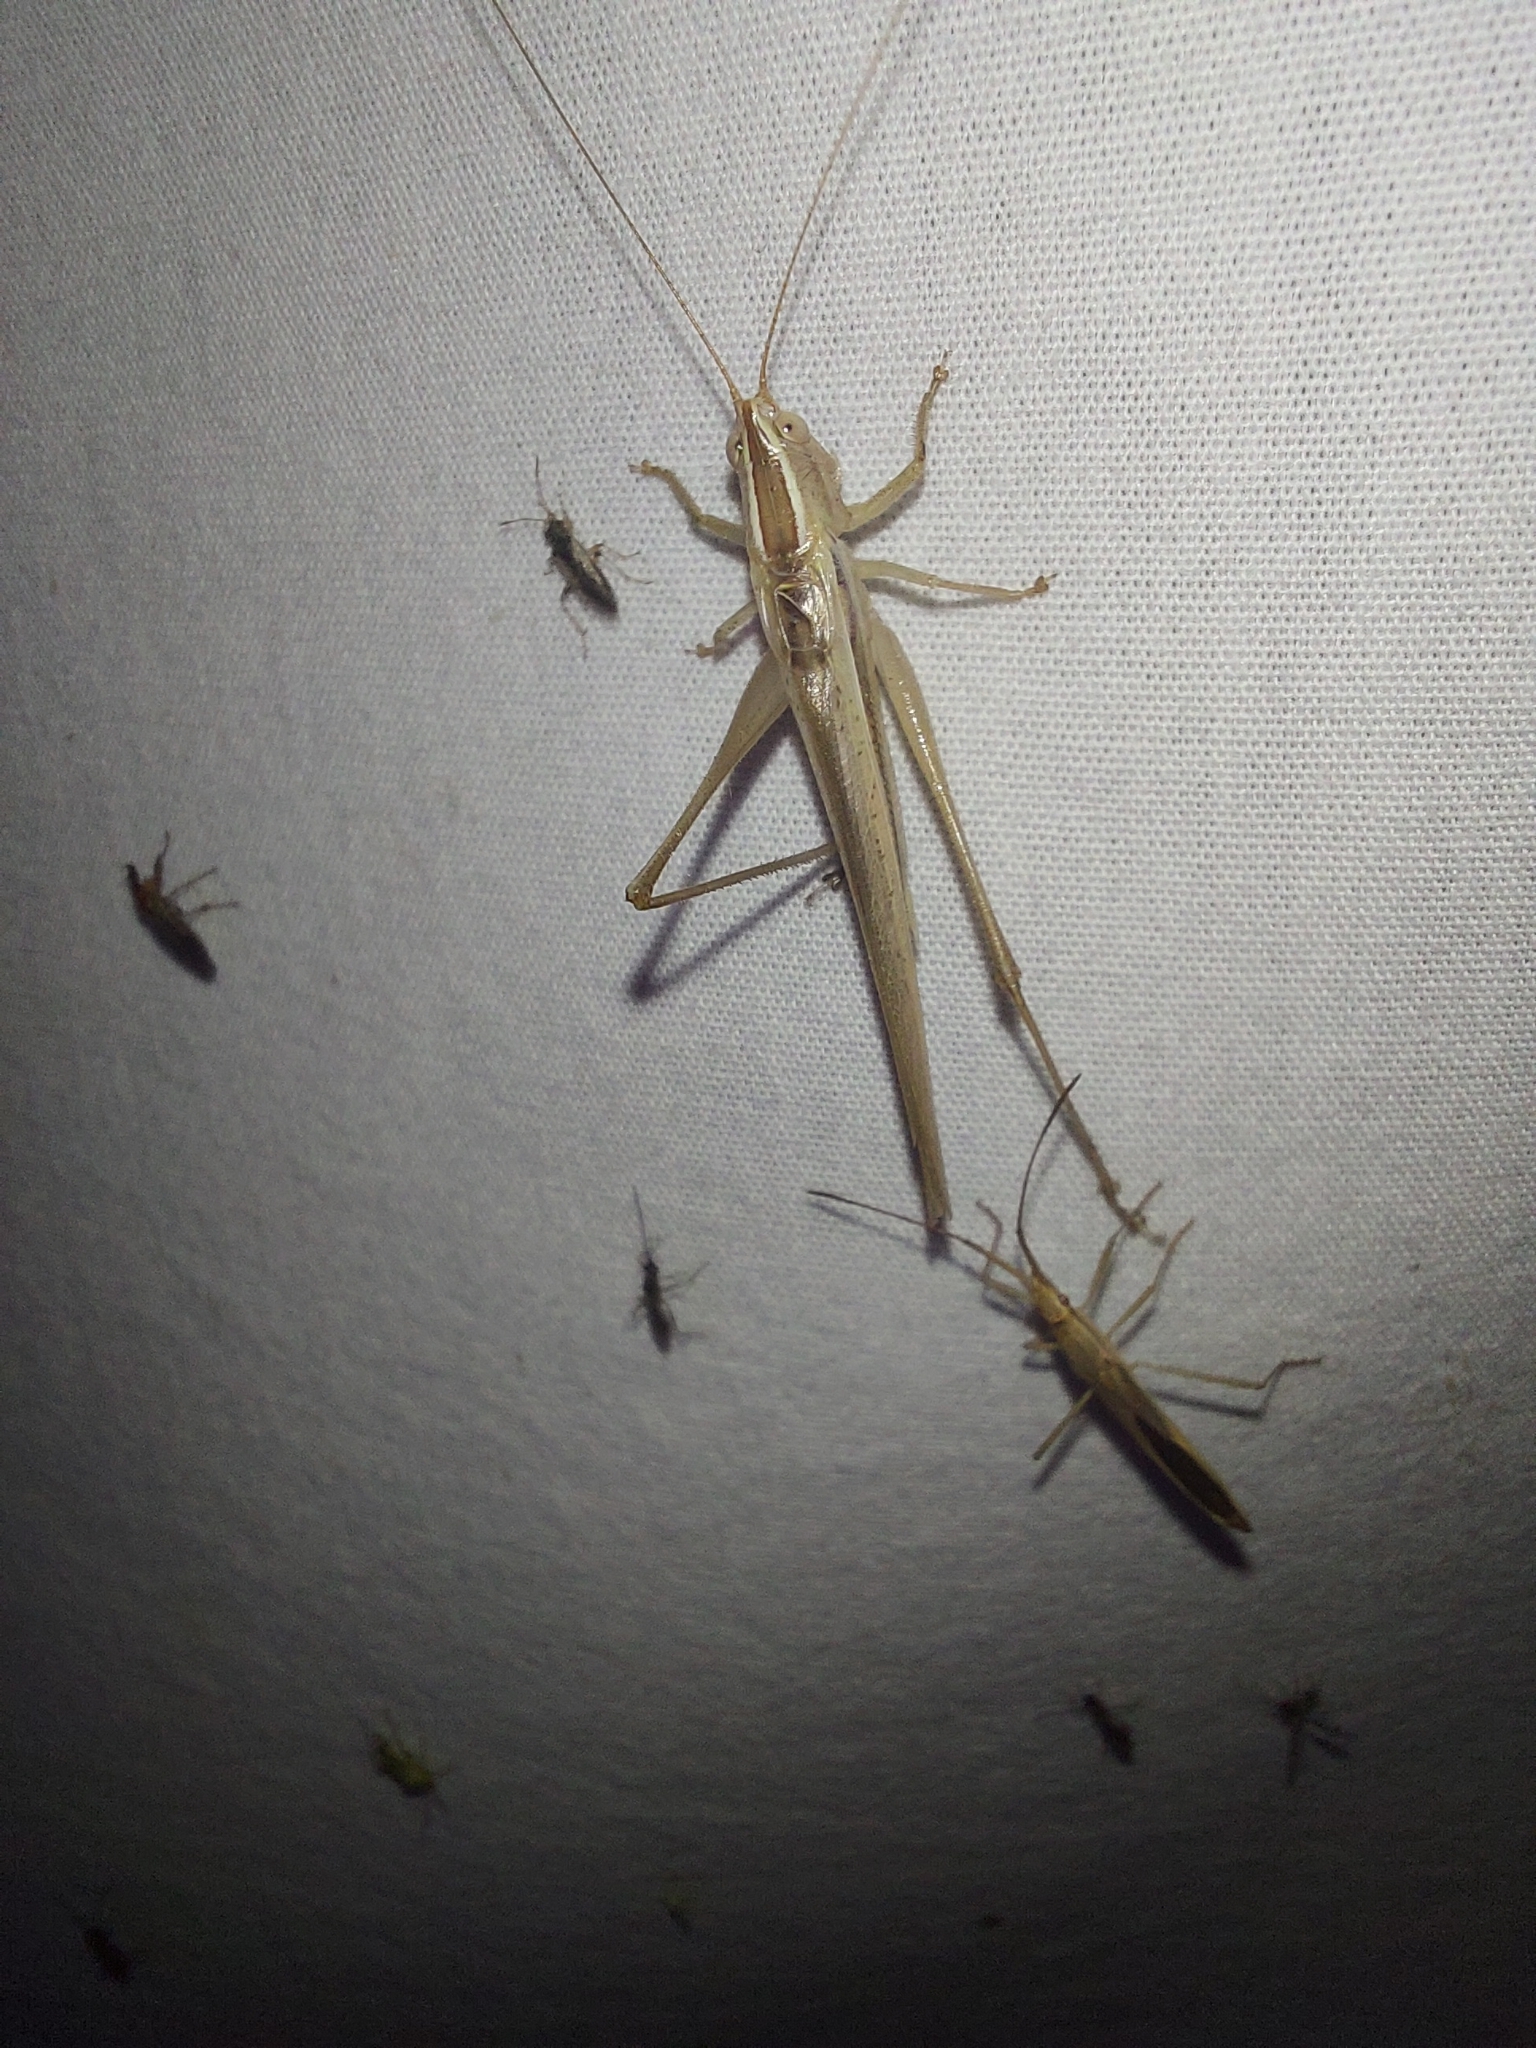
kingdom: Animalia
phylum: Arthropoda
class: Insecta
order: Orthoptera
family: Tettigoniidae
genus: Conocephalus
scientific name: Conocephalus upoluensis
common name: Upolu meadow katydid
